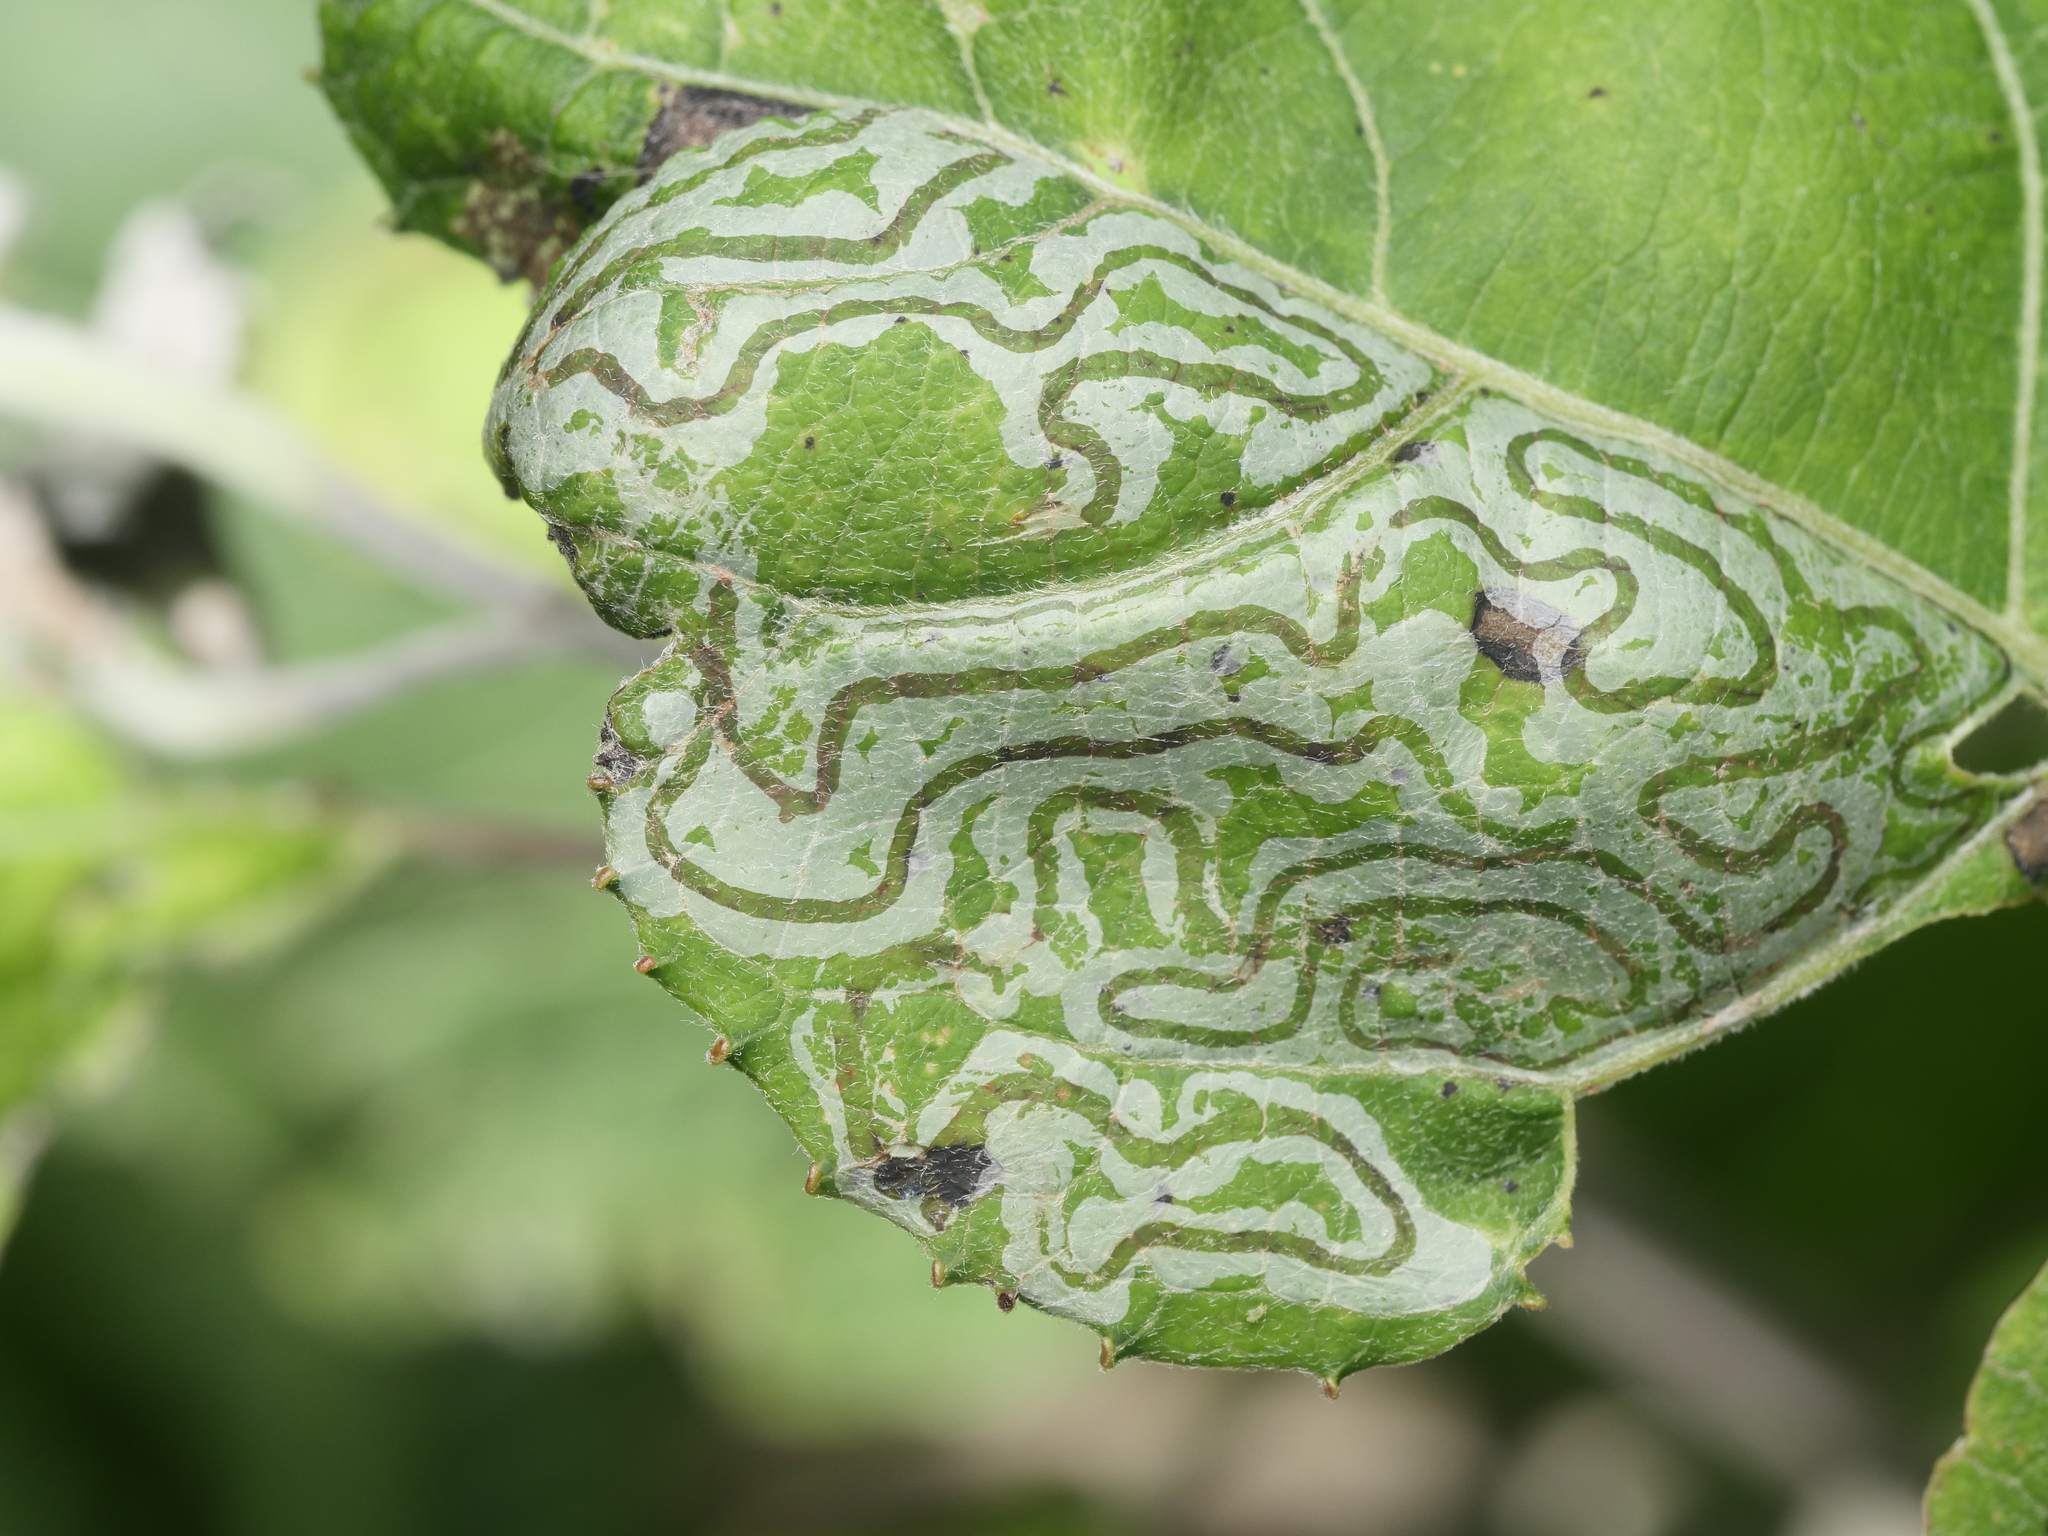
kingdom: Animalia
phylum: Arthropoda
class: Insecta
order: Lepidoptera
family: Gracillariidae
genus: Phyllocnistis
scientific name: Phyllocnistis populiella
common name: Aspen serpentine leafminer moth
